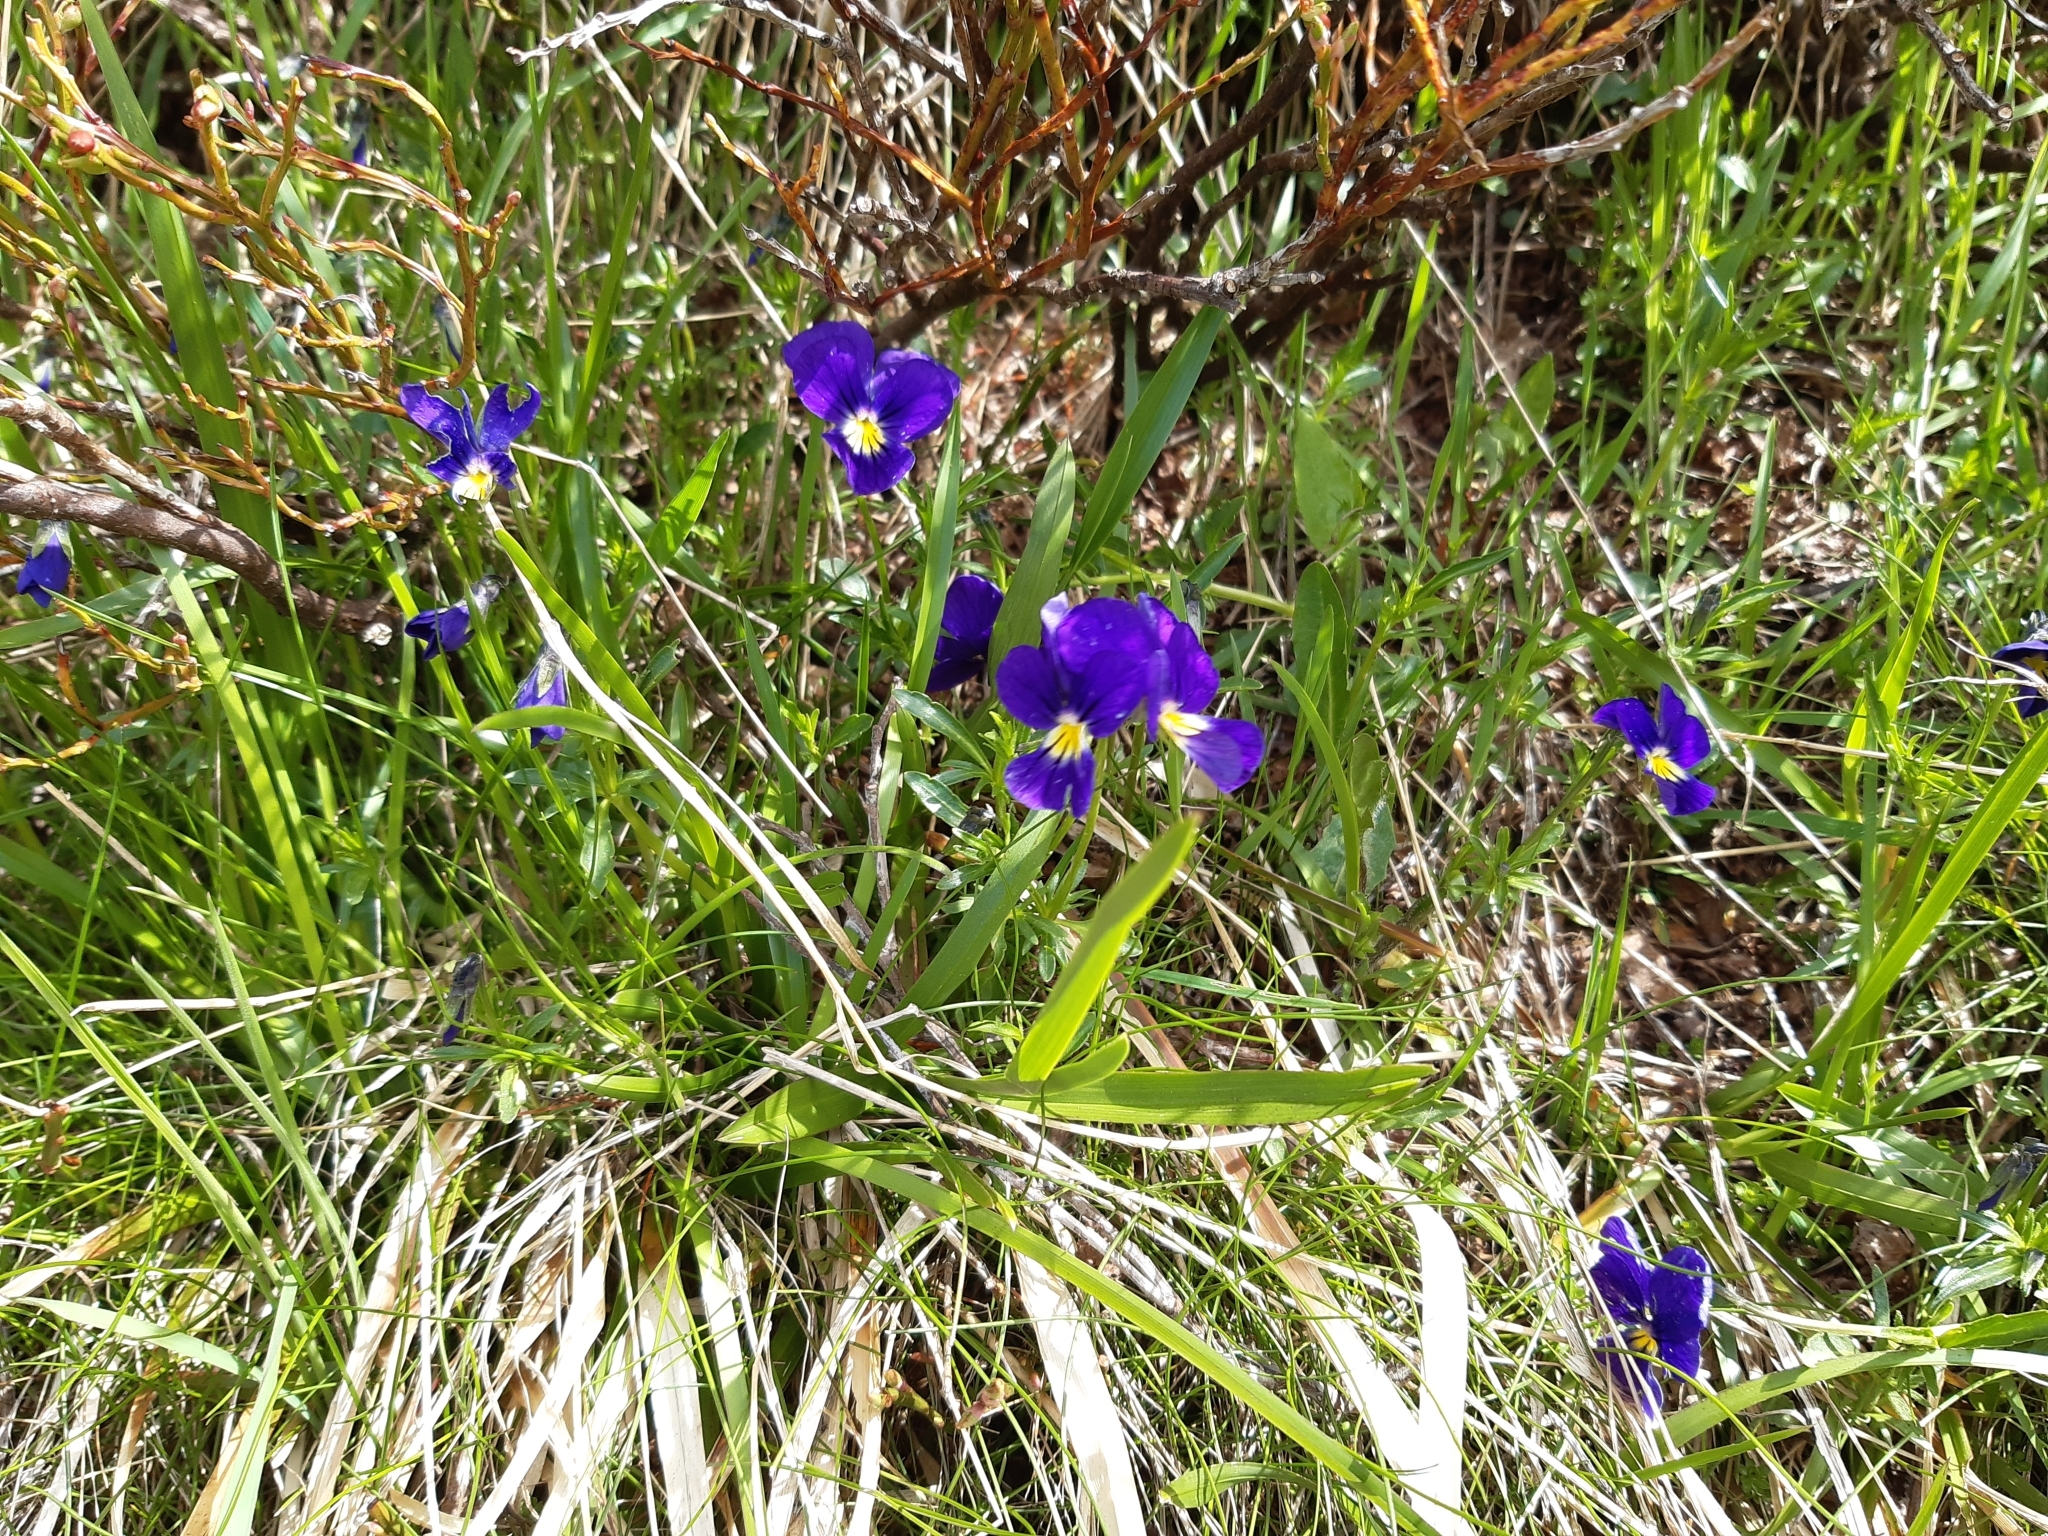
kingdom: Plantae
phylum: Tracheophyta
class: Magnoliopsida
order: Malpighiales
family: Violaceae
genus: Viola
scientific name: Viola lutea
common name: Mountain pansy
